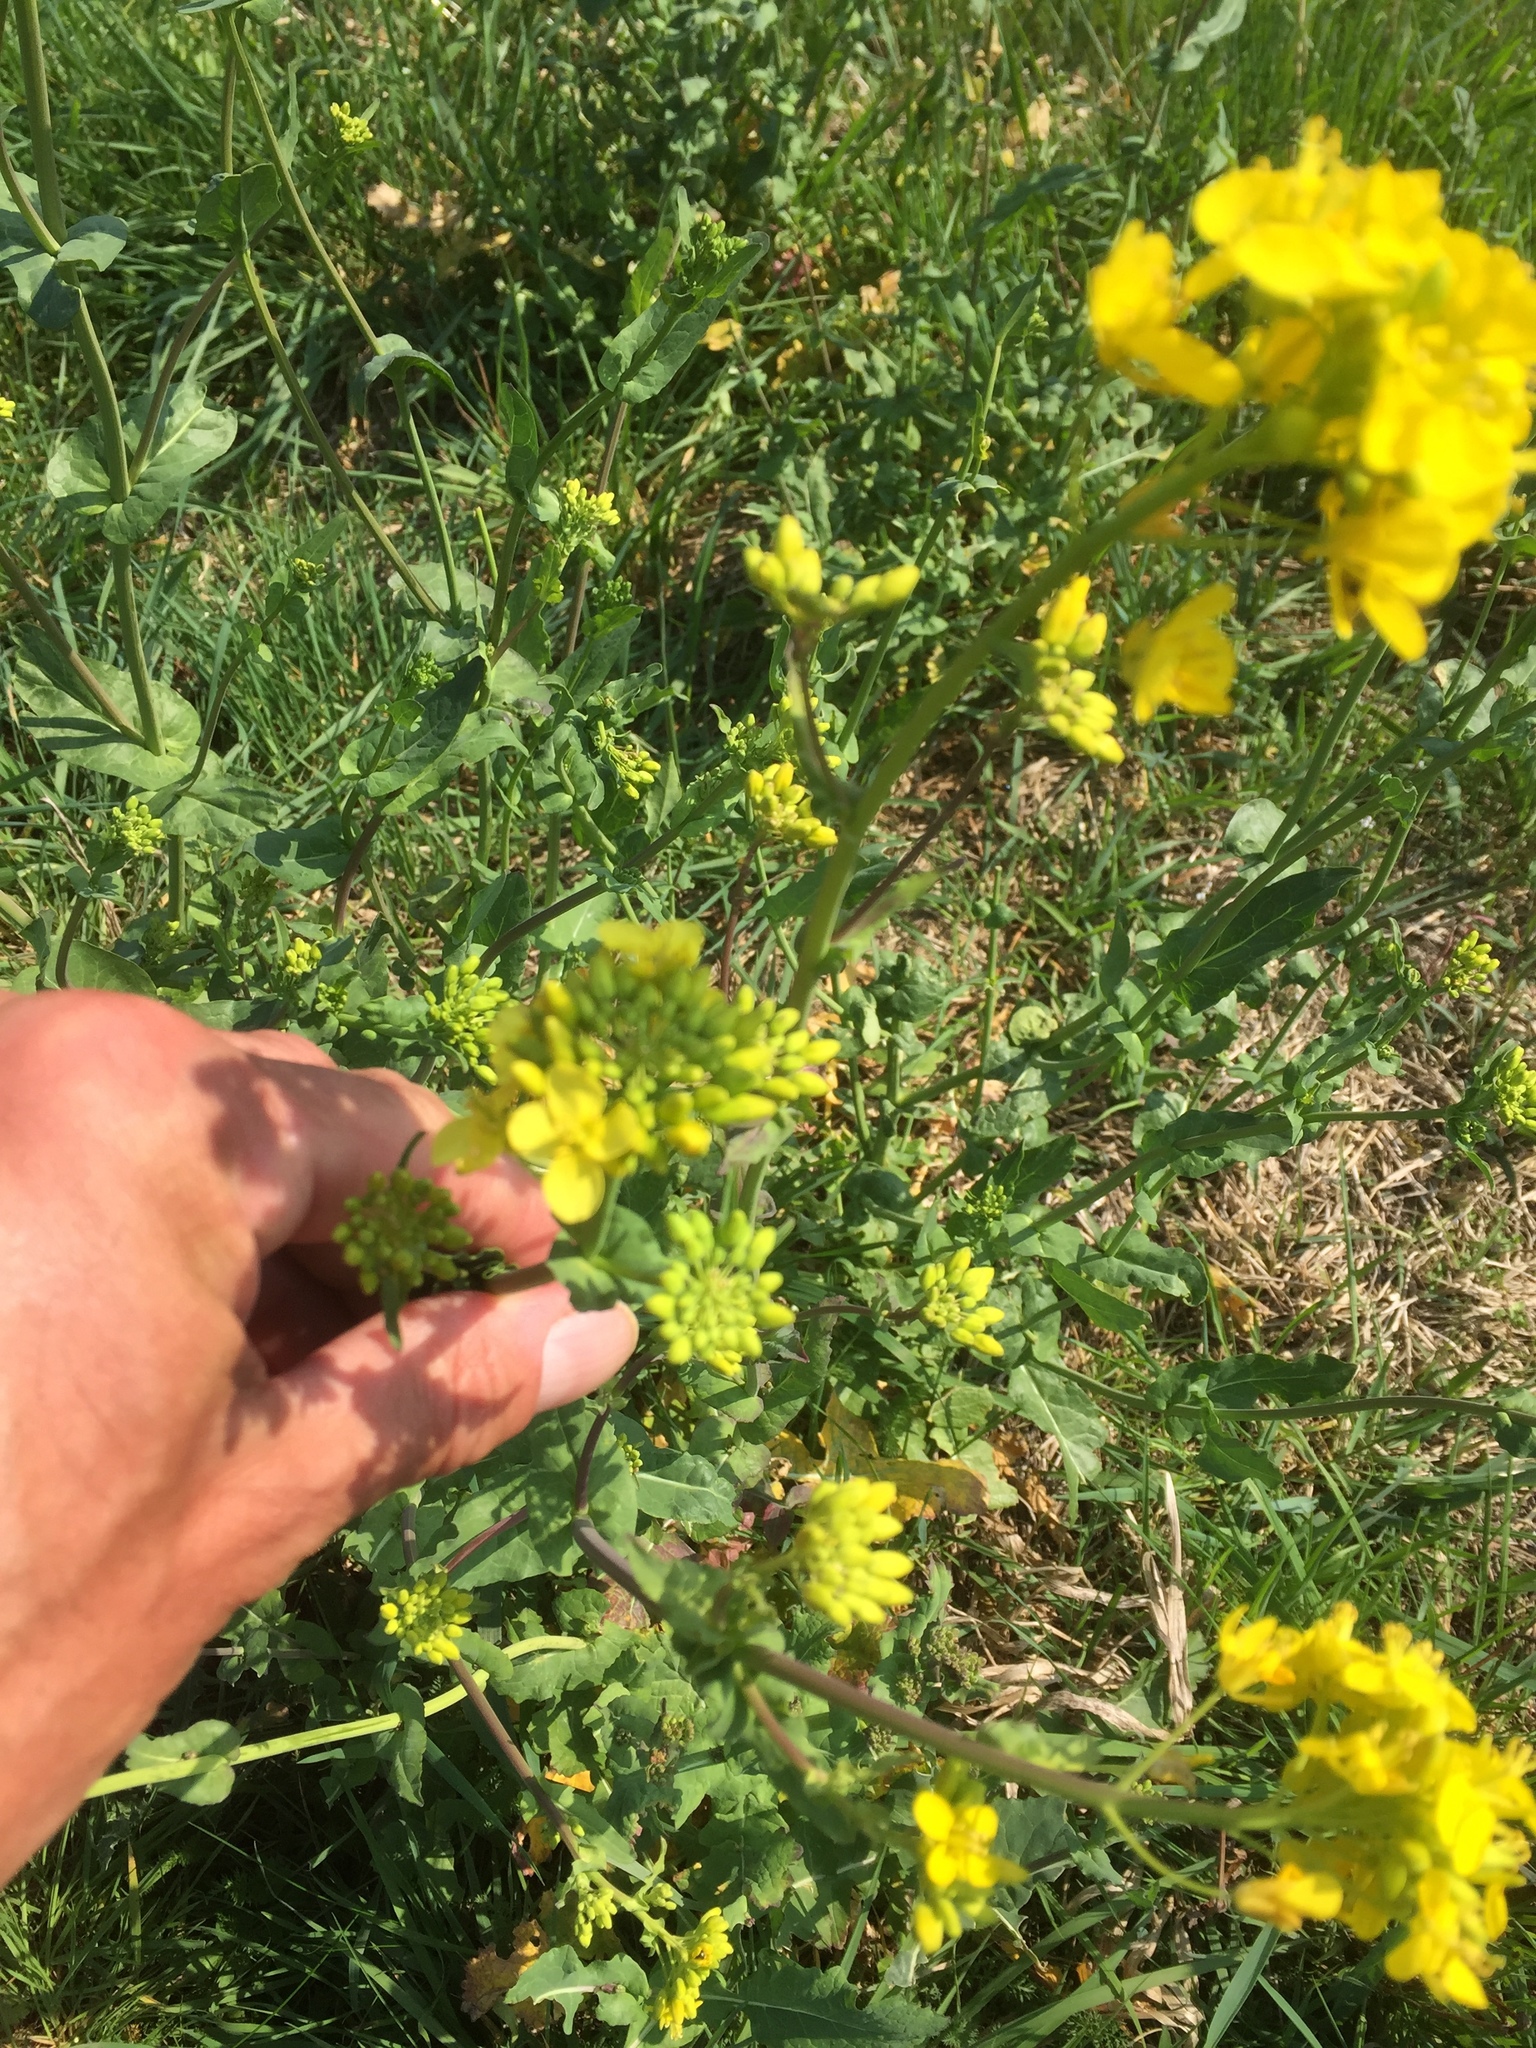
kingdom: Plantae
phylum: Tracheophyta
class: Magnoliopsida
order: Brassicales
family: Brassicaceae
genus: Brassica
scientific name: Brassica rapa
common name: Field mustard
